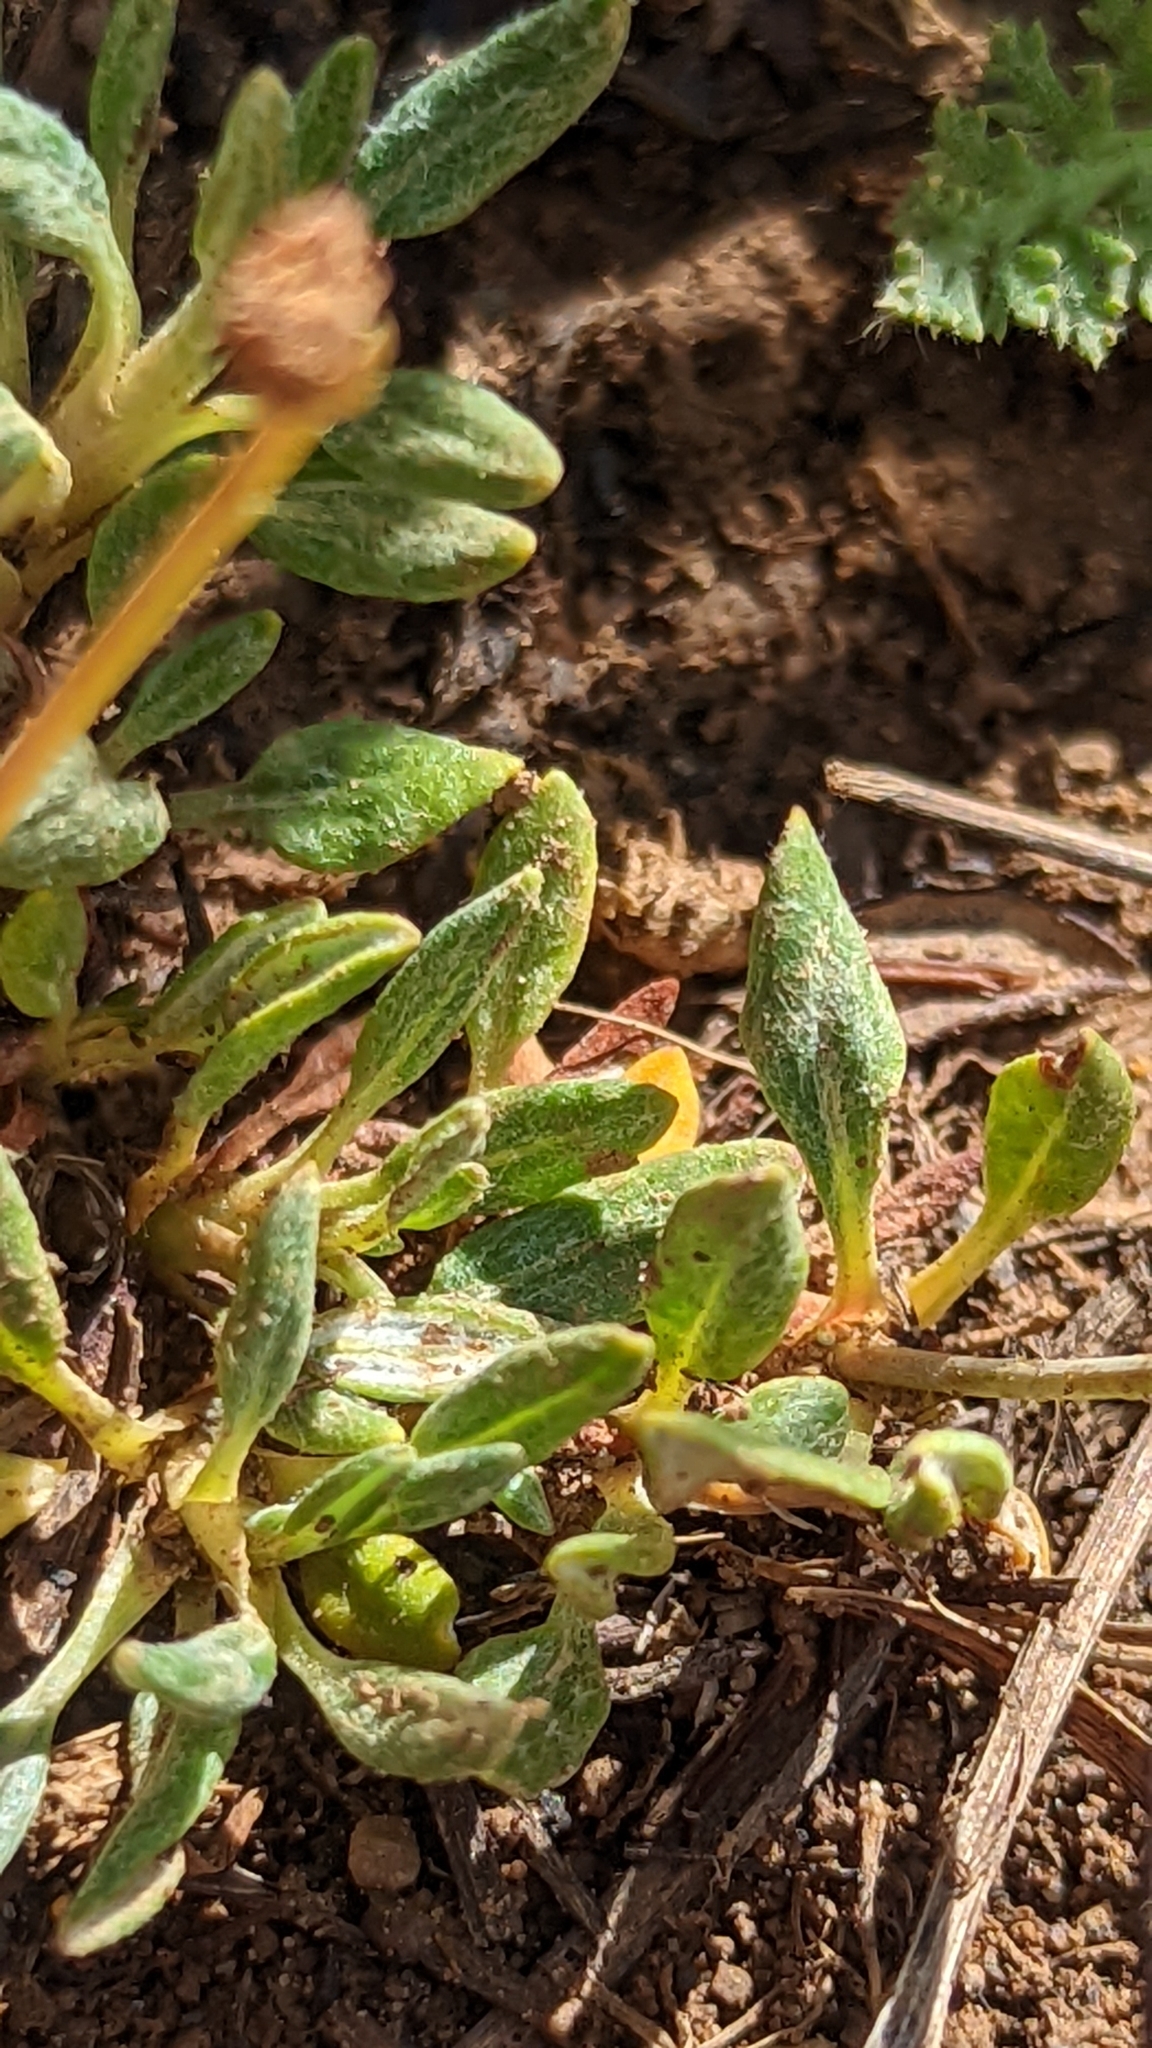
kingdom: Plantae
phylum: Tracheophyta
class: Magnoliopsida
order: Caryophyllales
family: Polygonaceae
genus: Eriogonum
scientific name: Eriogonum panguicense
